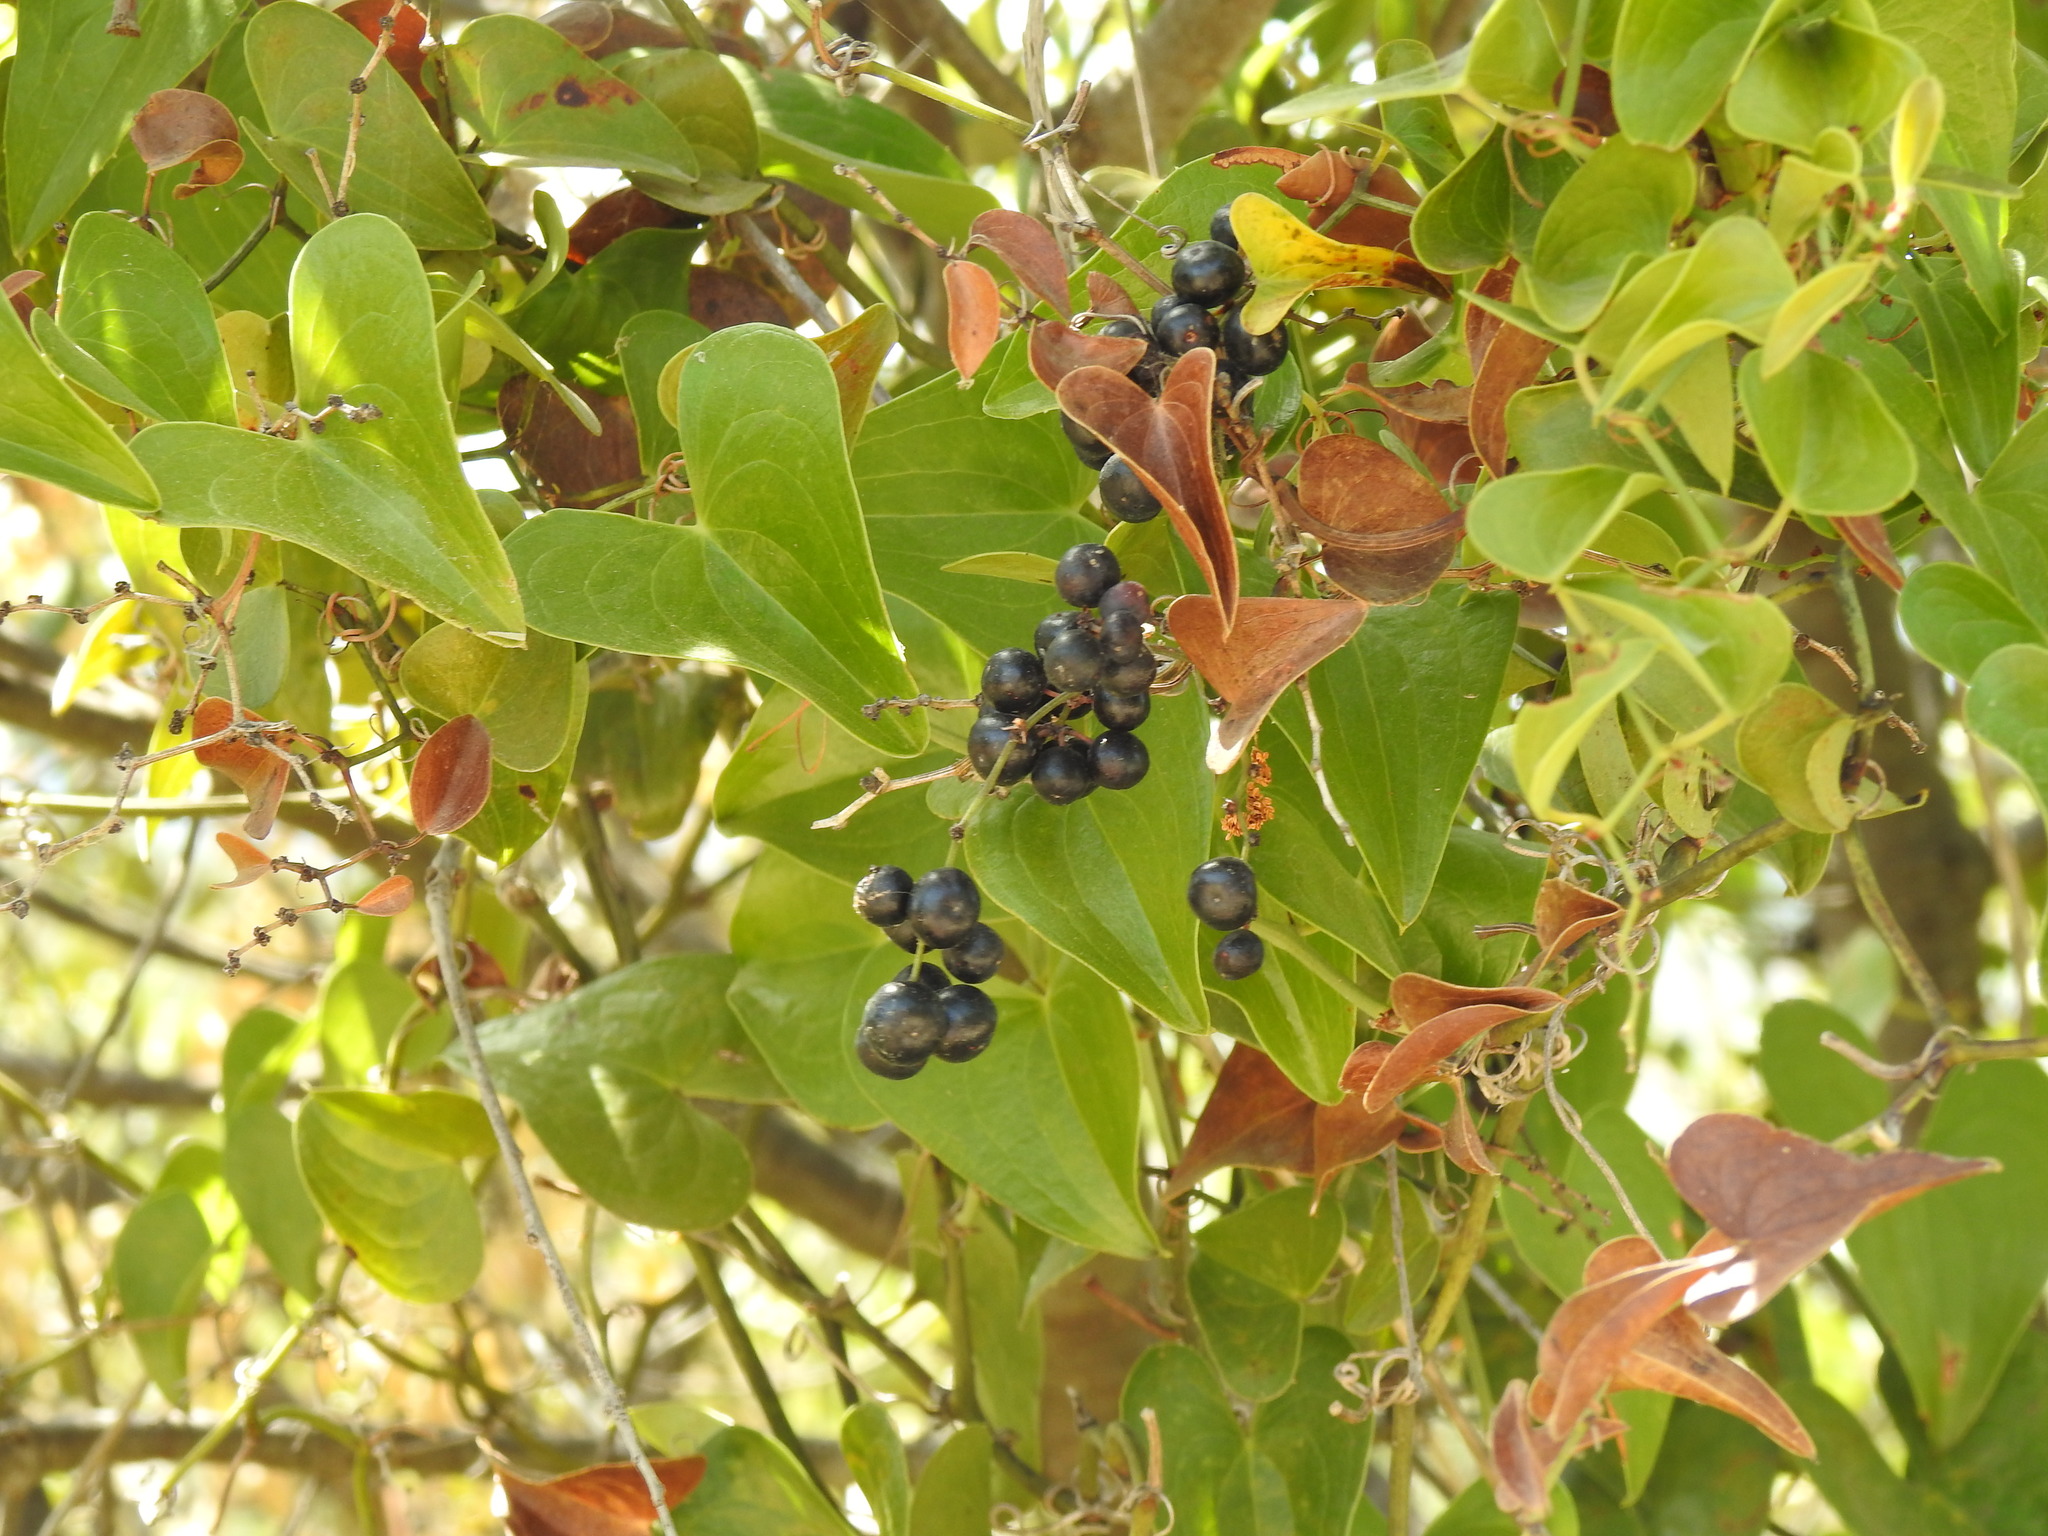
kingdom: Plantae
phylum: Tracheophyta
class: Liliopsida
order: Liliales
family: Smilacaceae
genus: Smilax
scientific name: Smilax aspera
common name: Common smilax
